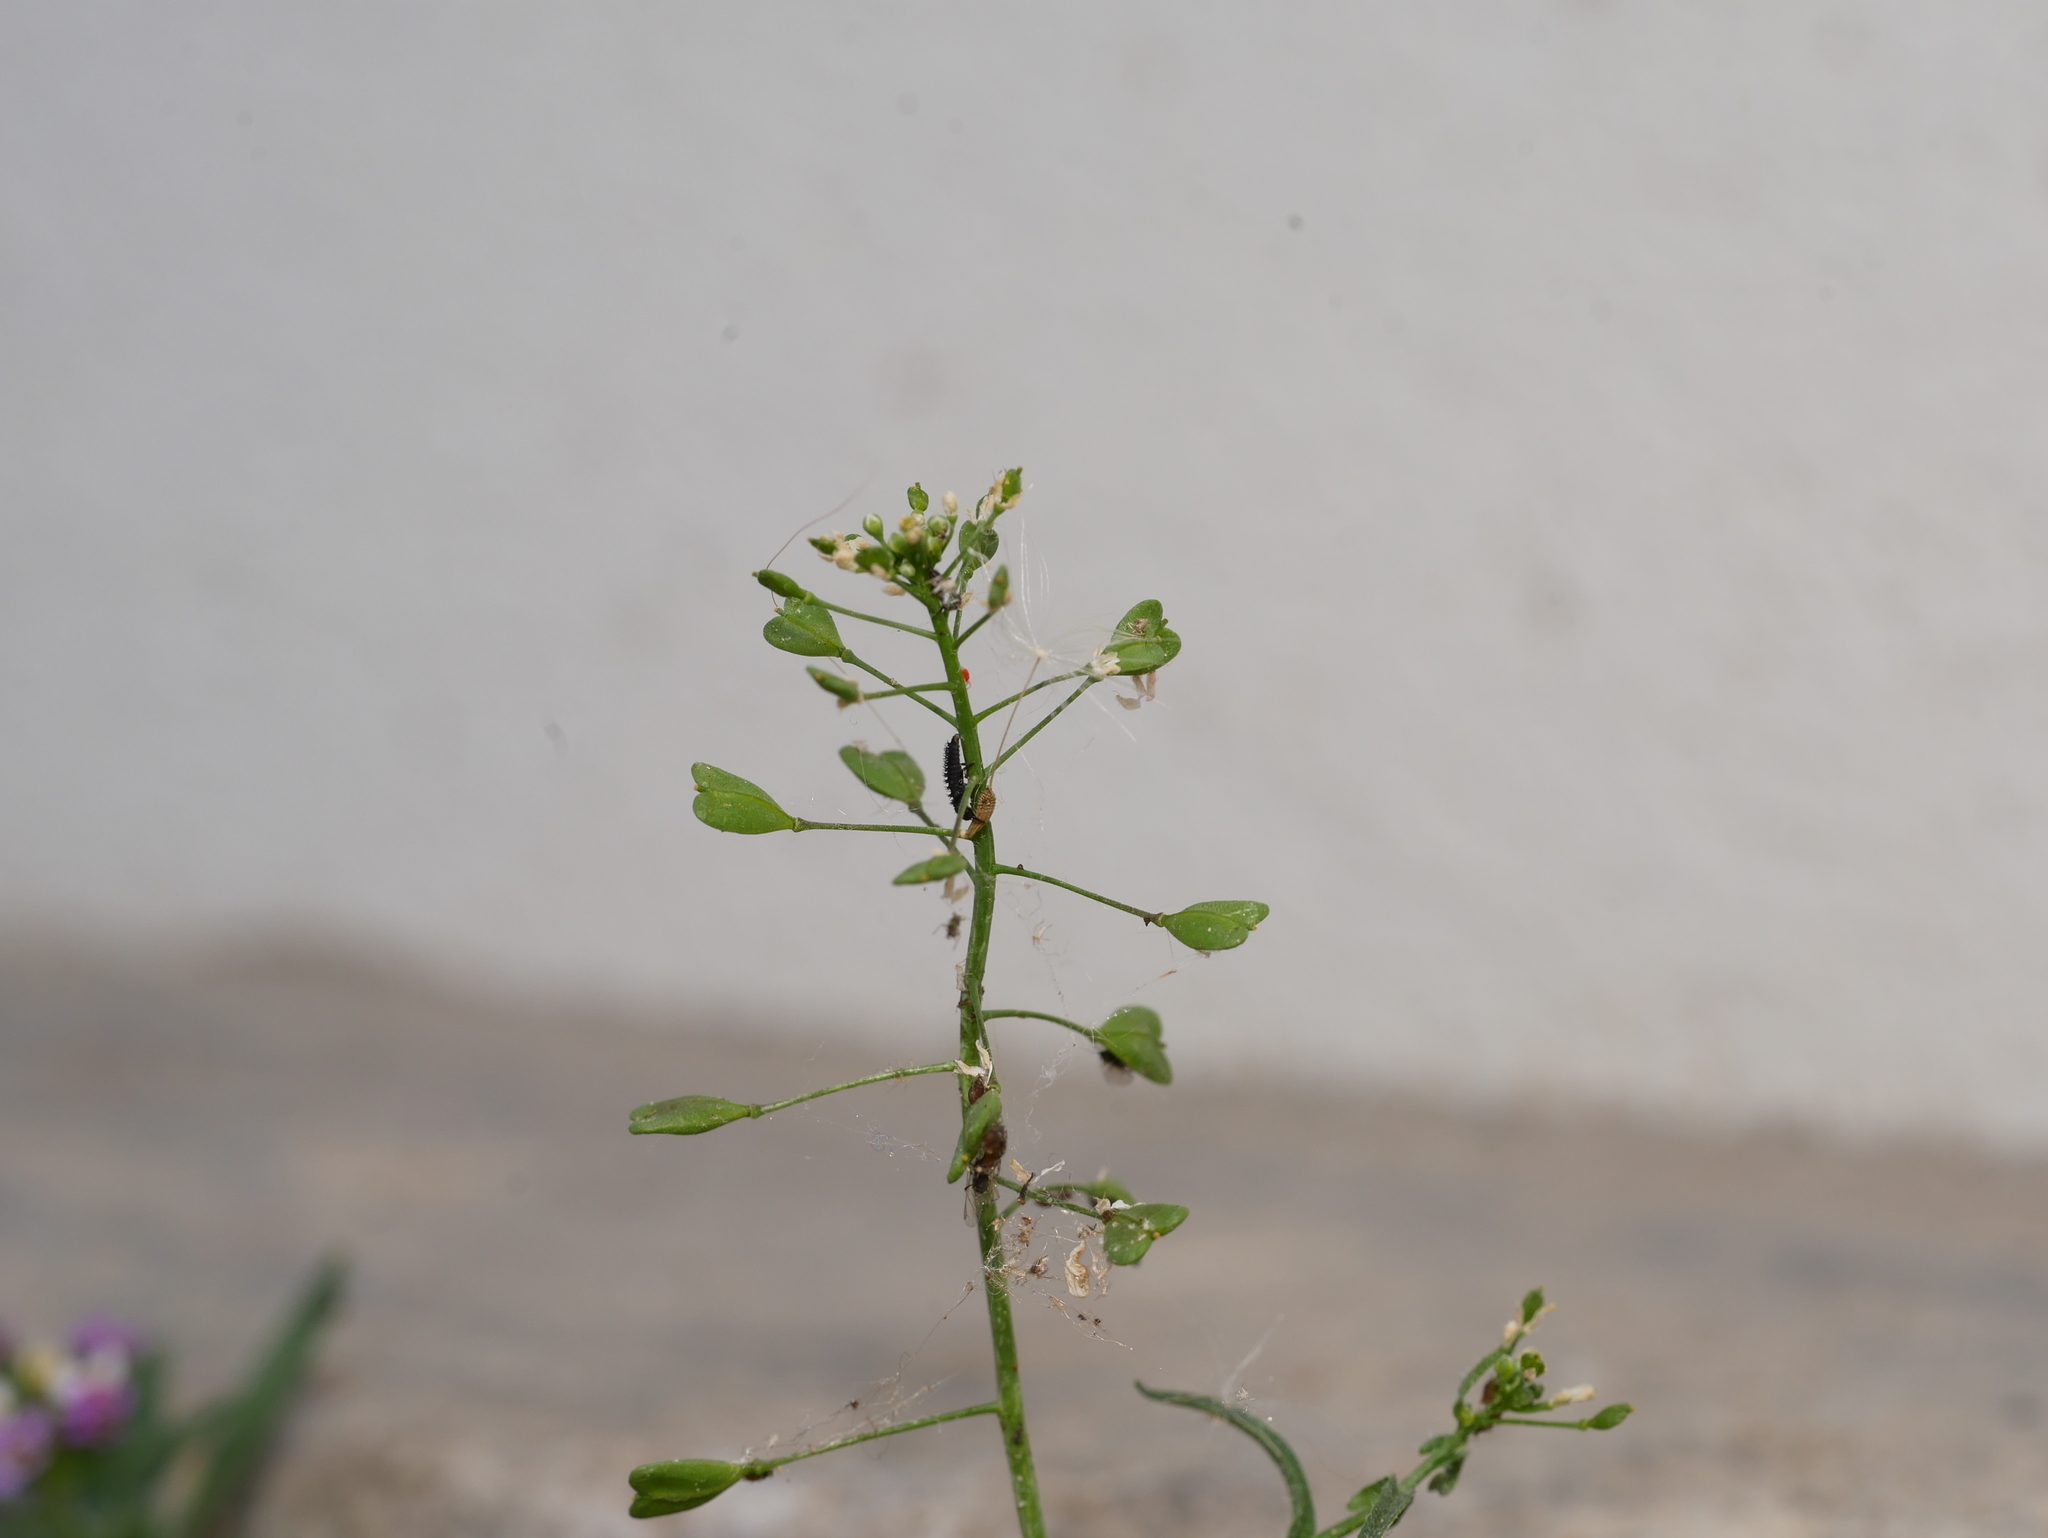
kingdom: Plantae
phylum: Tracheophyta
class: Magnoliopsida
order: Brassicales
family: Brassicaceae
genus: Capsella
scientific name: Capsella bursa-pastoris
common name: Shepherd's purse
